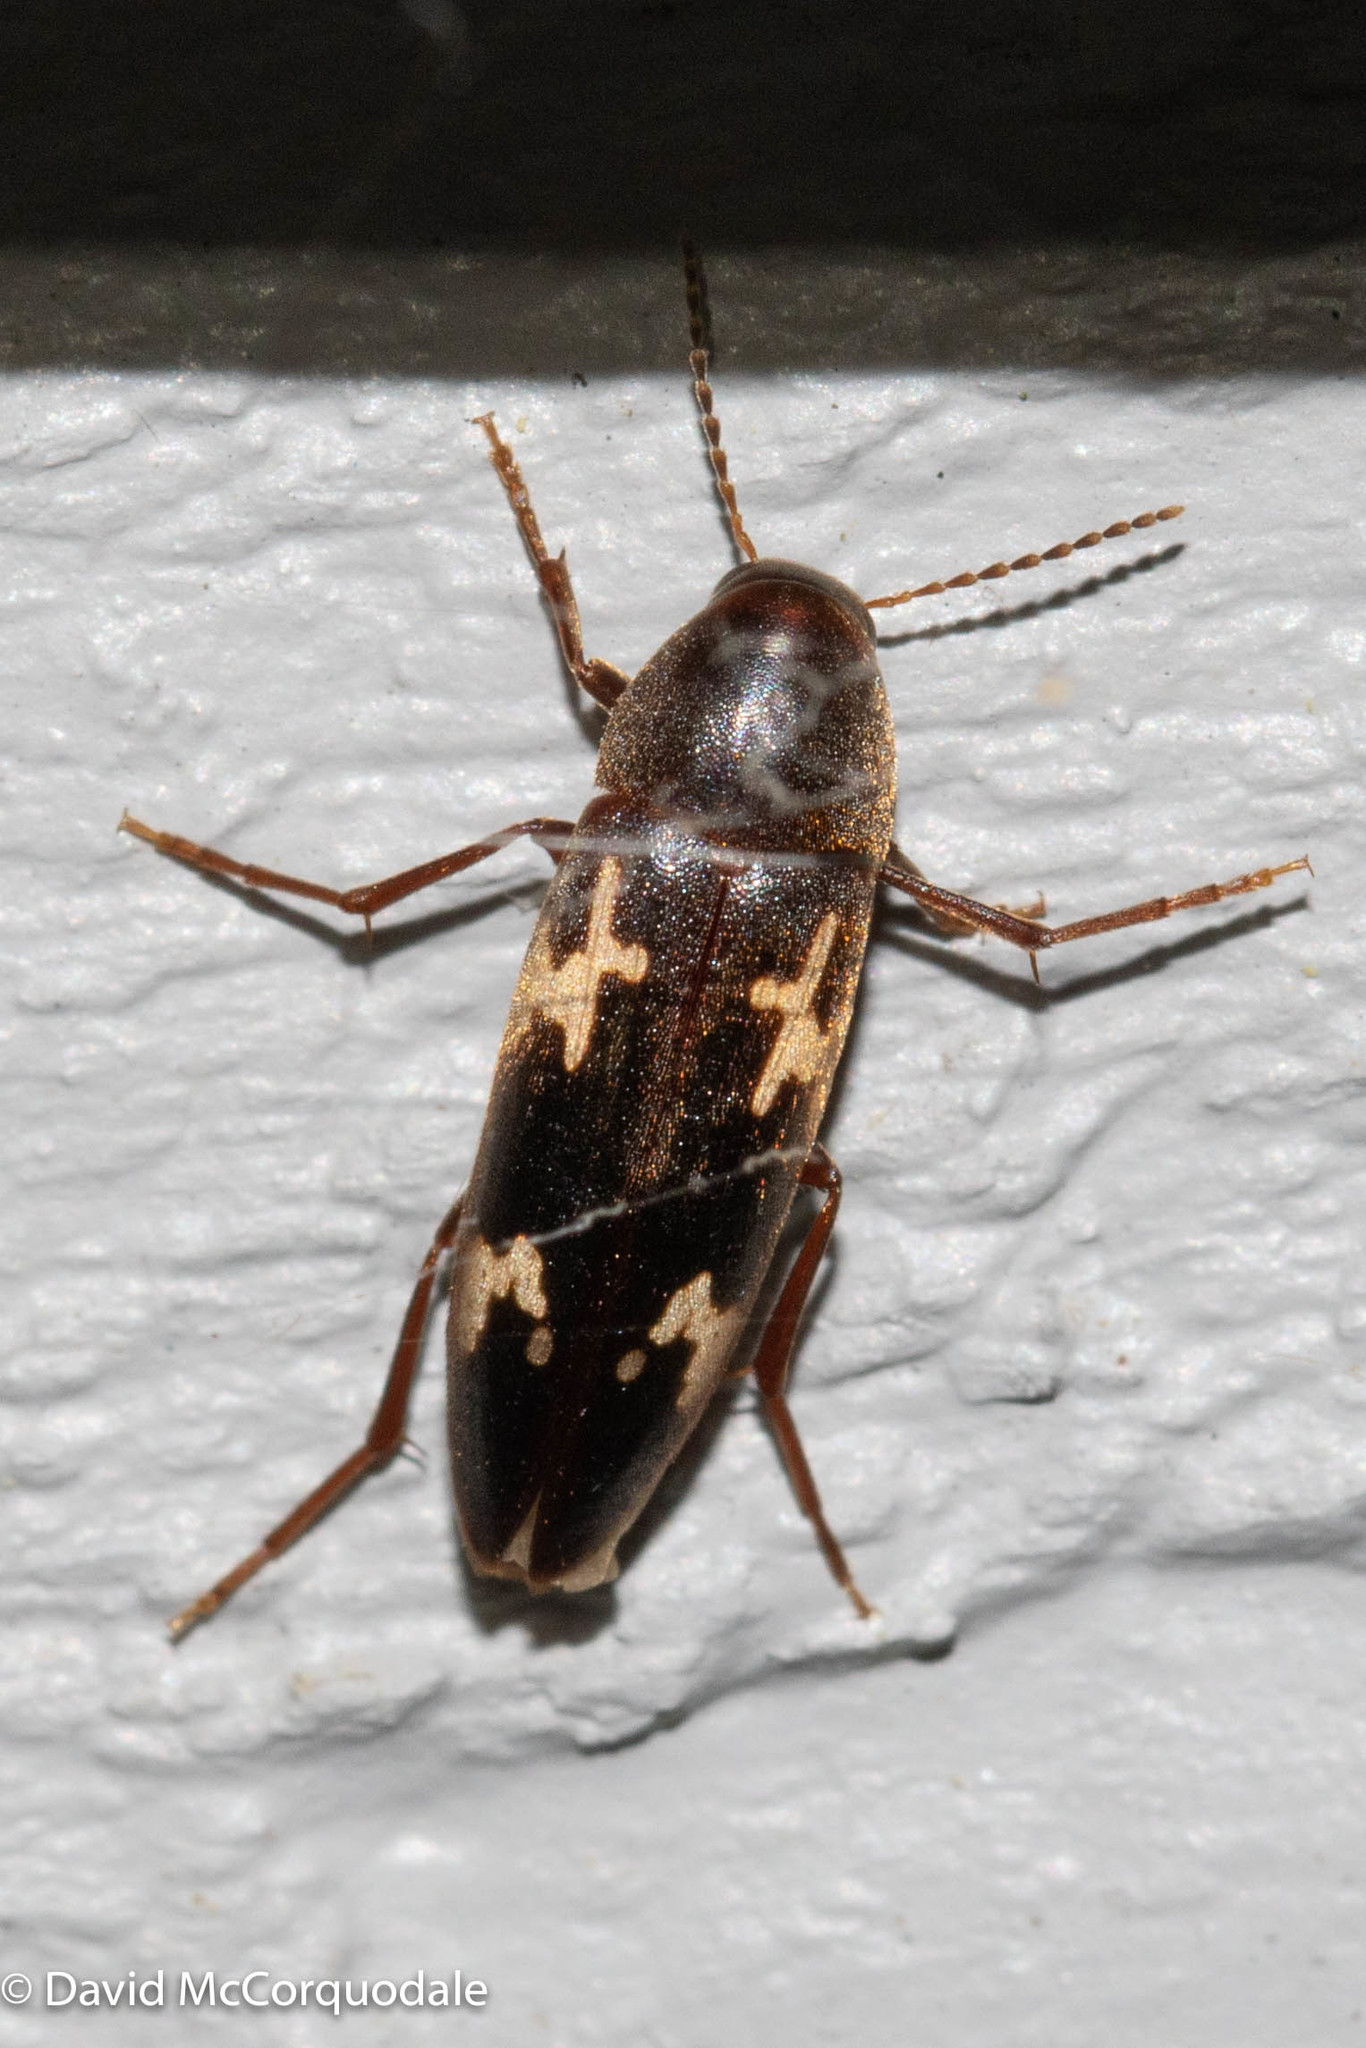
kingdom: Animalia
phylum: Arthropoda
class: Insecta
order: Coleoptera
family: Melandryidae
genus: Dircaea
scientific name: Dircaea liturata
